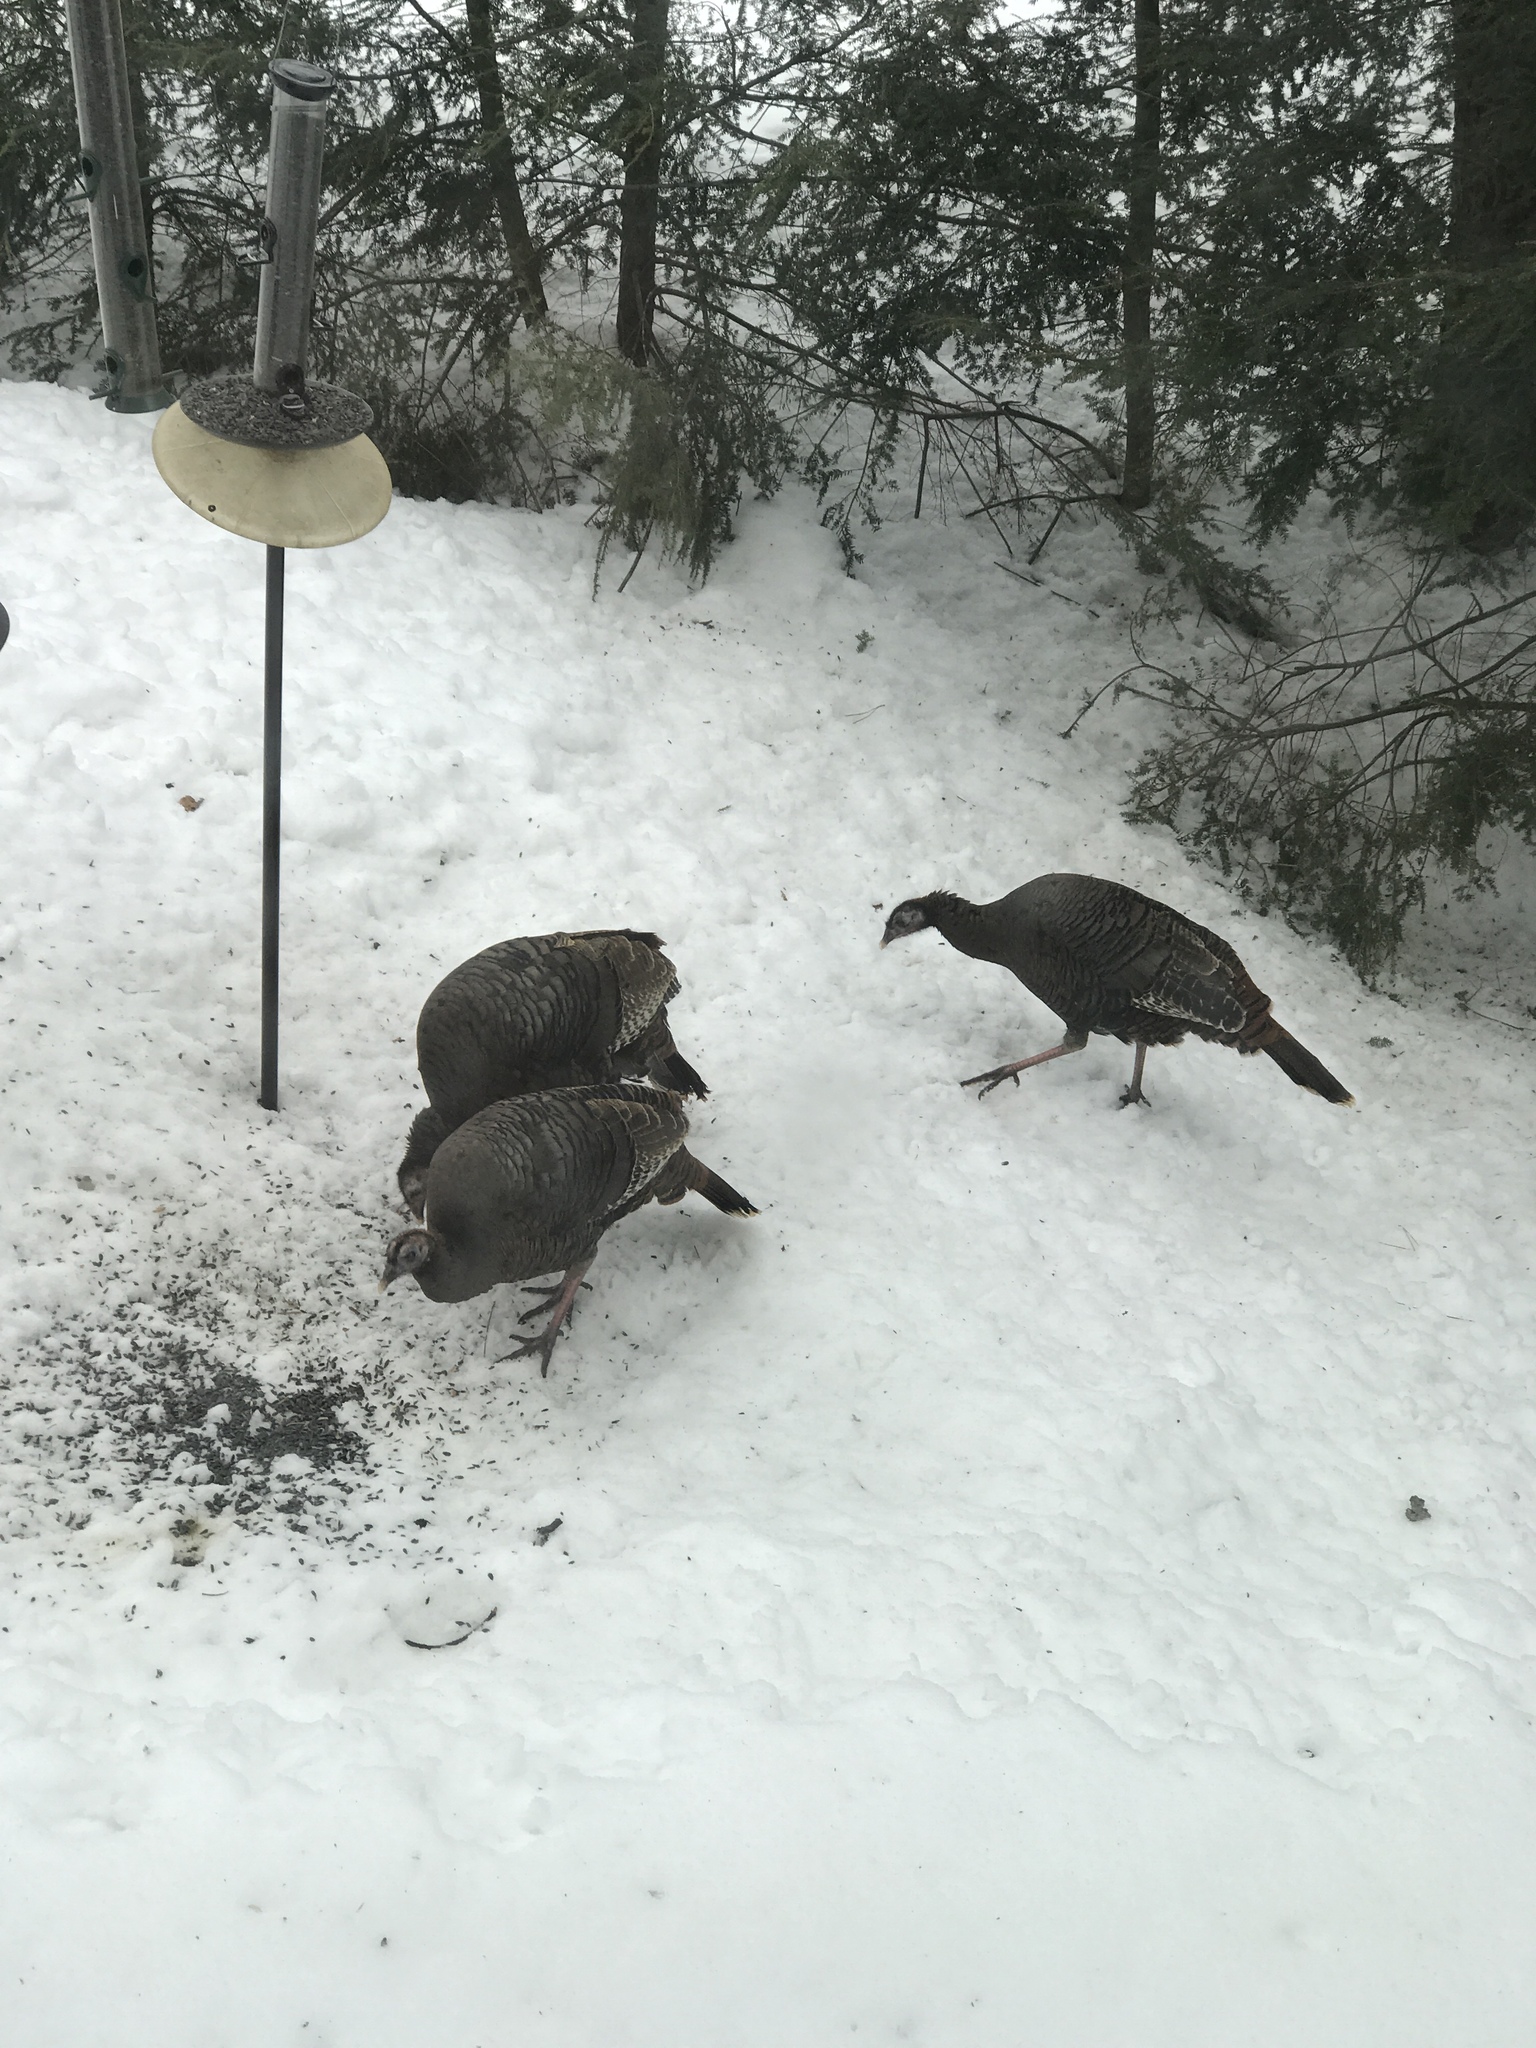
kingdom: Animalia
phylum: Chordata
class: Aves
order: Galliformes
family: Phasianidae
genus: Meleagris
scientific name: Meleagris gallopavo
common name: Wild turkey
